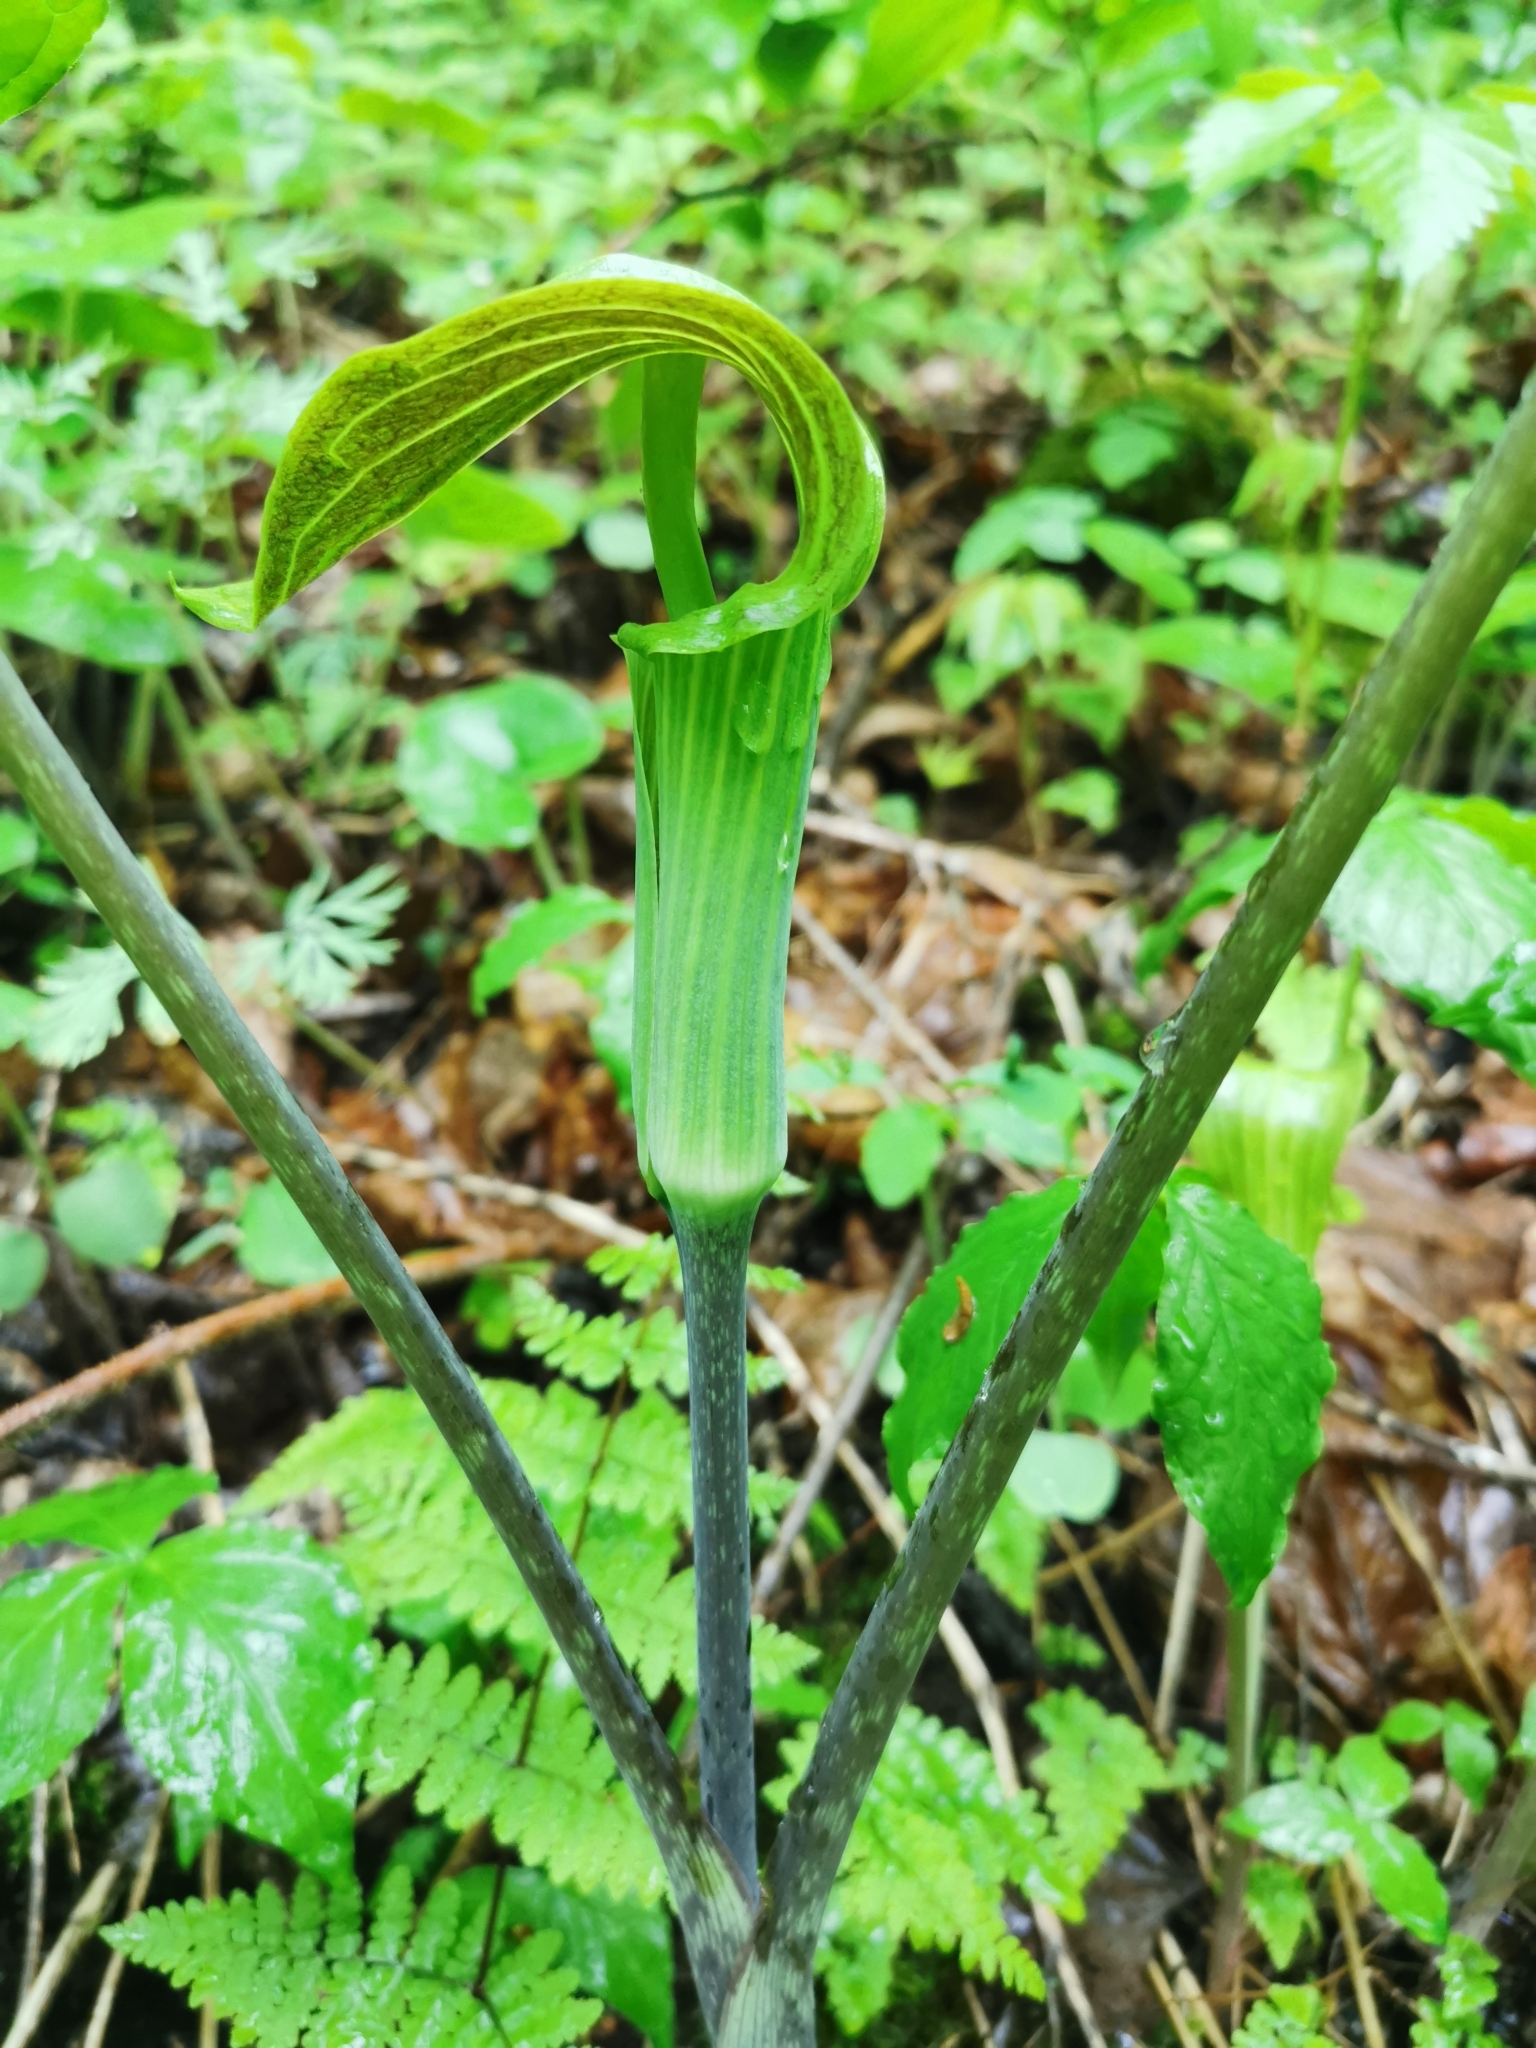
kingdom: Plantae
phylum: Tracheophyta
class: Liliopsida
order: Alismatales
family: Araceae
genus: Arisaema
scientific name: Arisaema triphyllum
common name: Jack-in-the-pulpit
